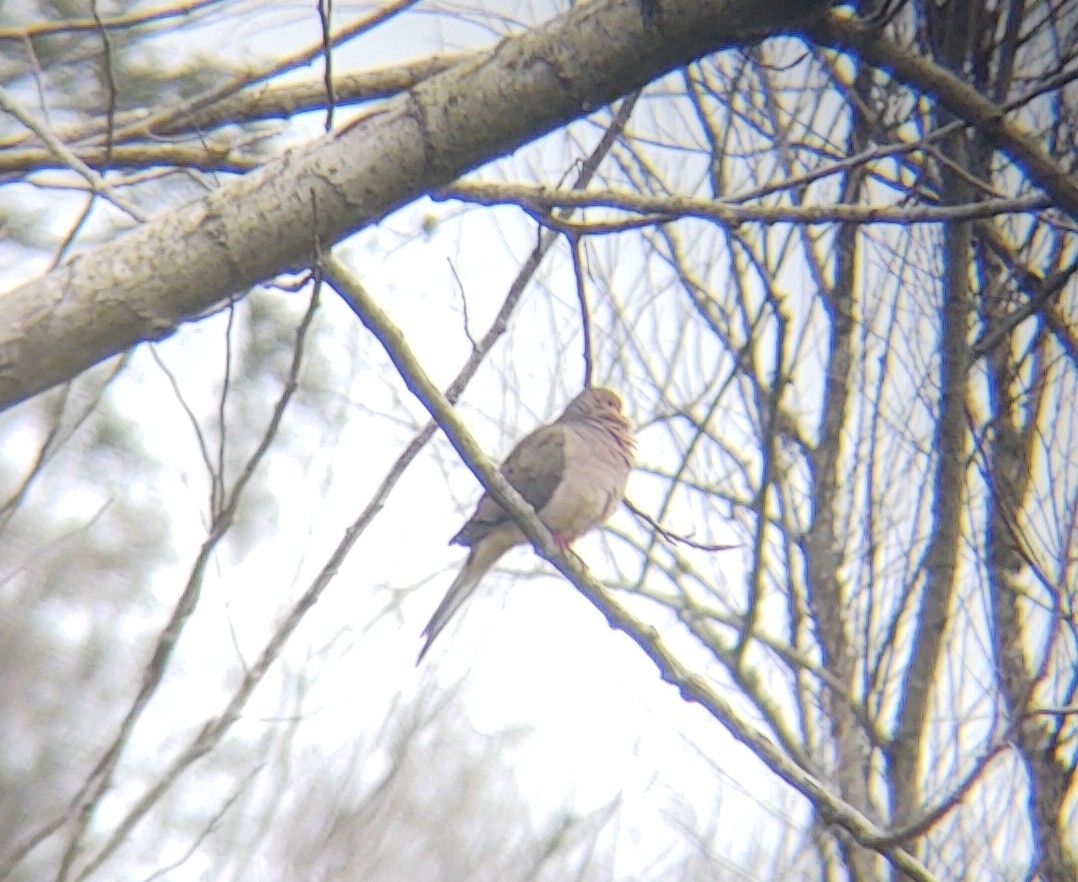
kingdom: Animalia
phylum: Chordata
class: Aves
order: Columbiformes
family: Columbidae
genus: Zenaida
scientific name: Zenaida macroura
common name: Mourning dove
